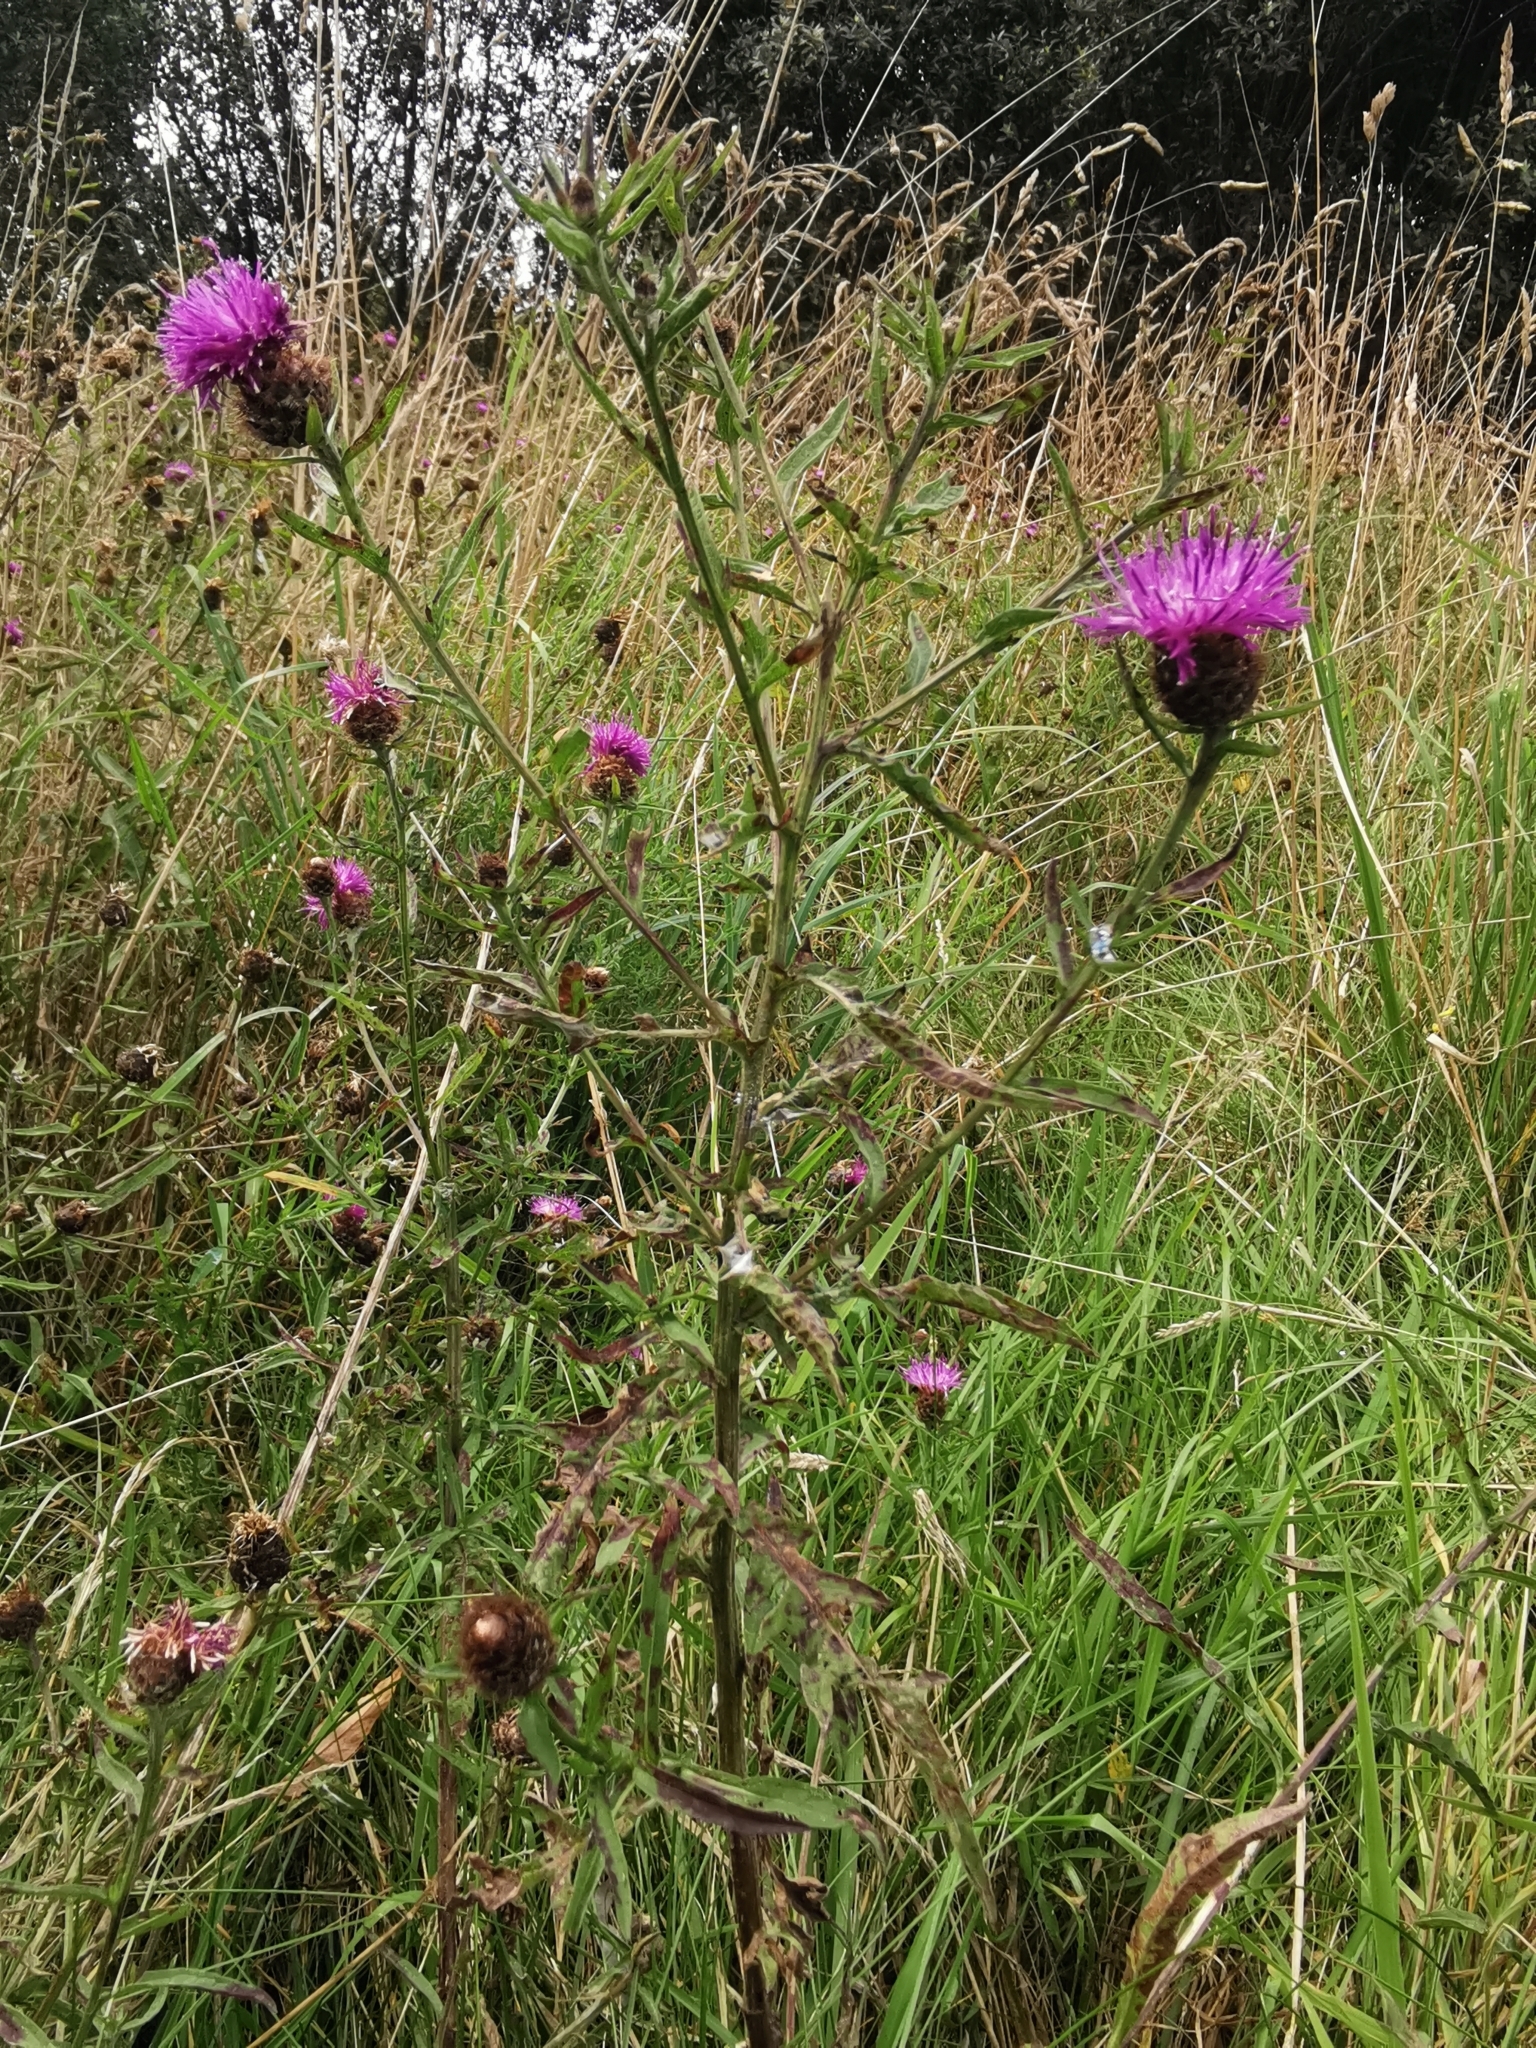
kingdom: Plantae
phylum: Tracheophyta
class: Magnoliopsida
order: Asterales
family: Asteraceae
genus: Centaurea
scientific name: Centaurea nigra
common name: Lesser knapweed
